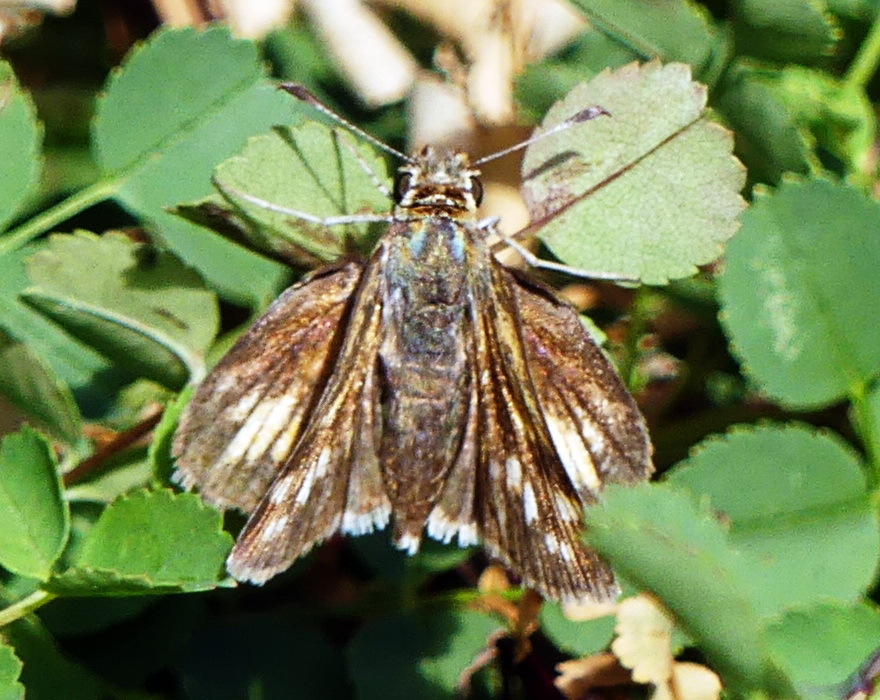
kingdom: Animalia
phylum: Arthropoda
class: Insecta
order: Lepidoptera
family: Hesperiidae
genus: Polites
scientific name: Polites coras
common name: Peck's skipper
